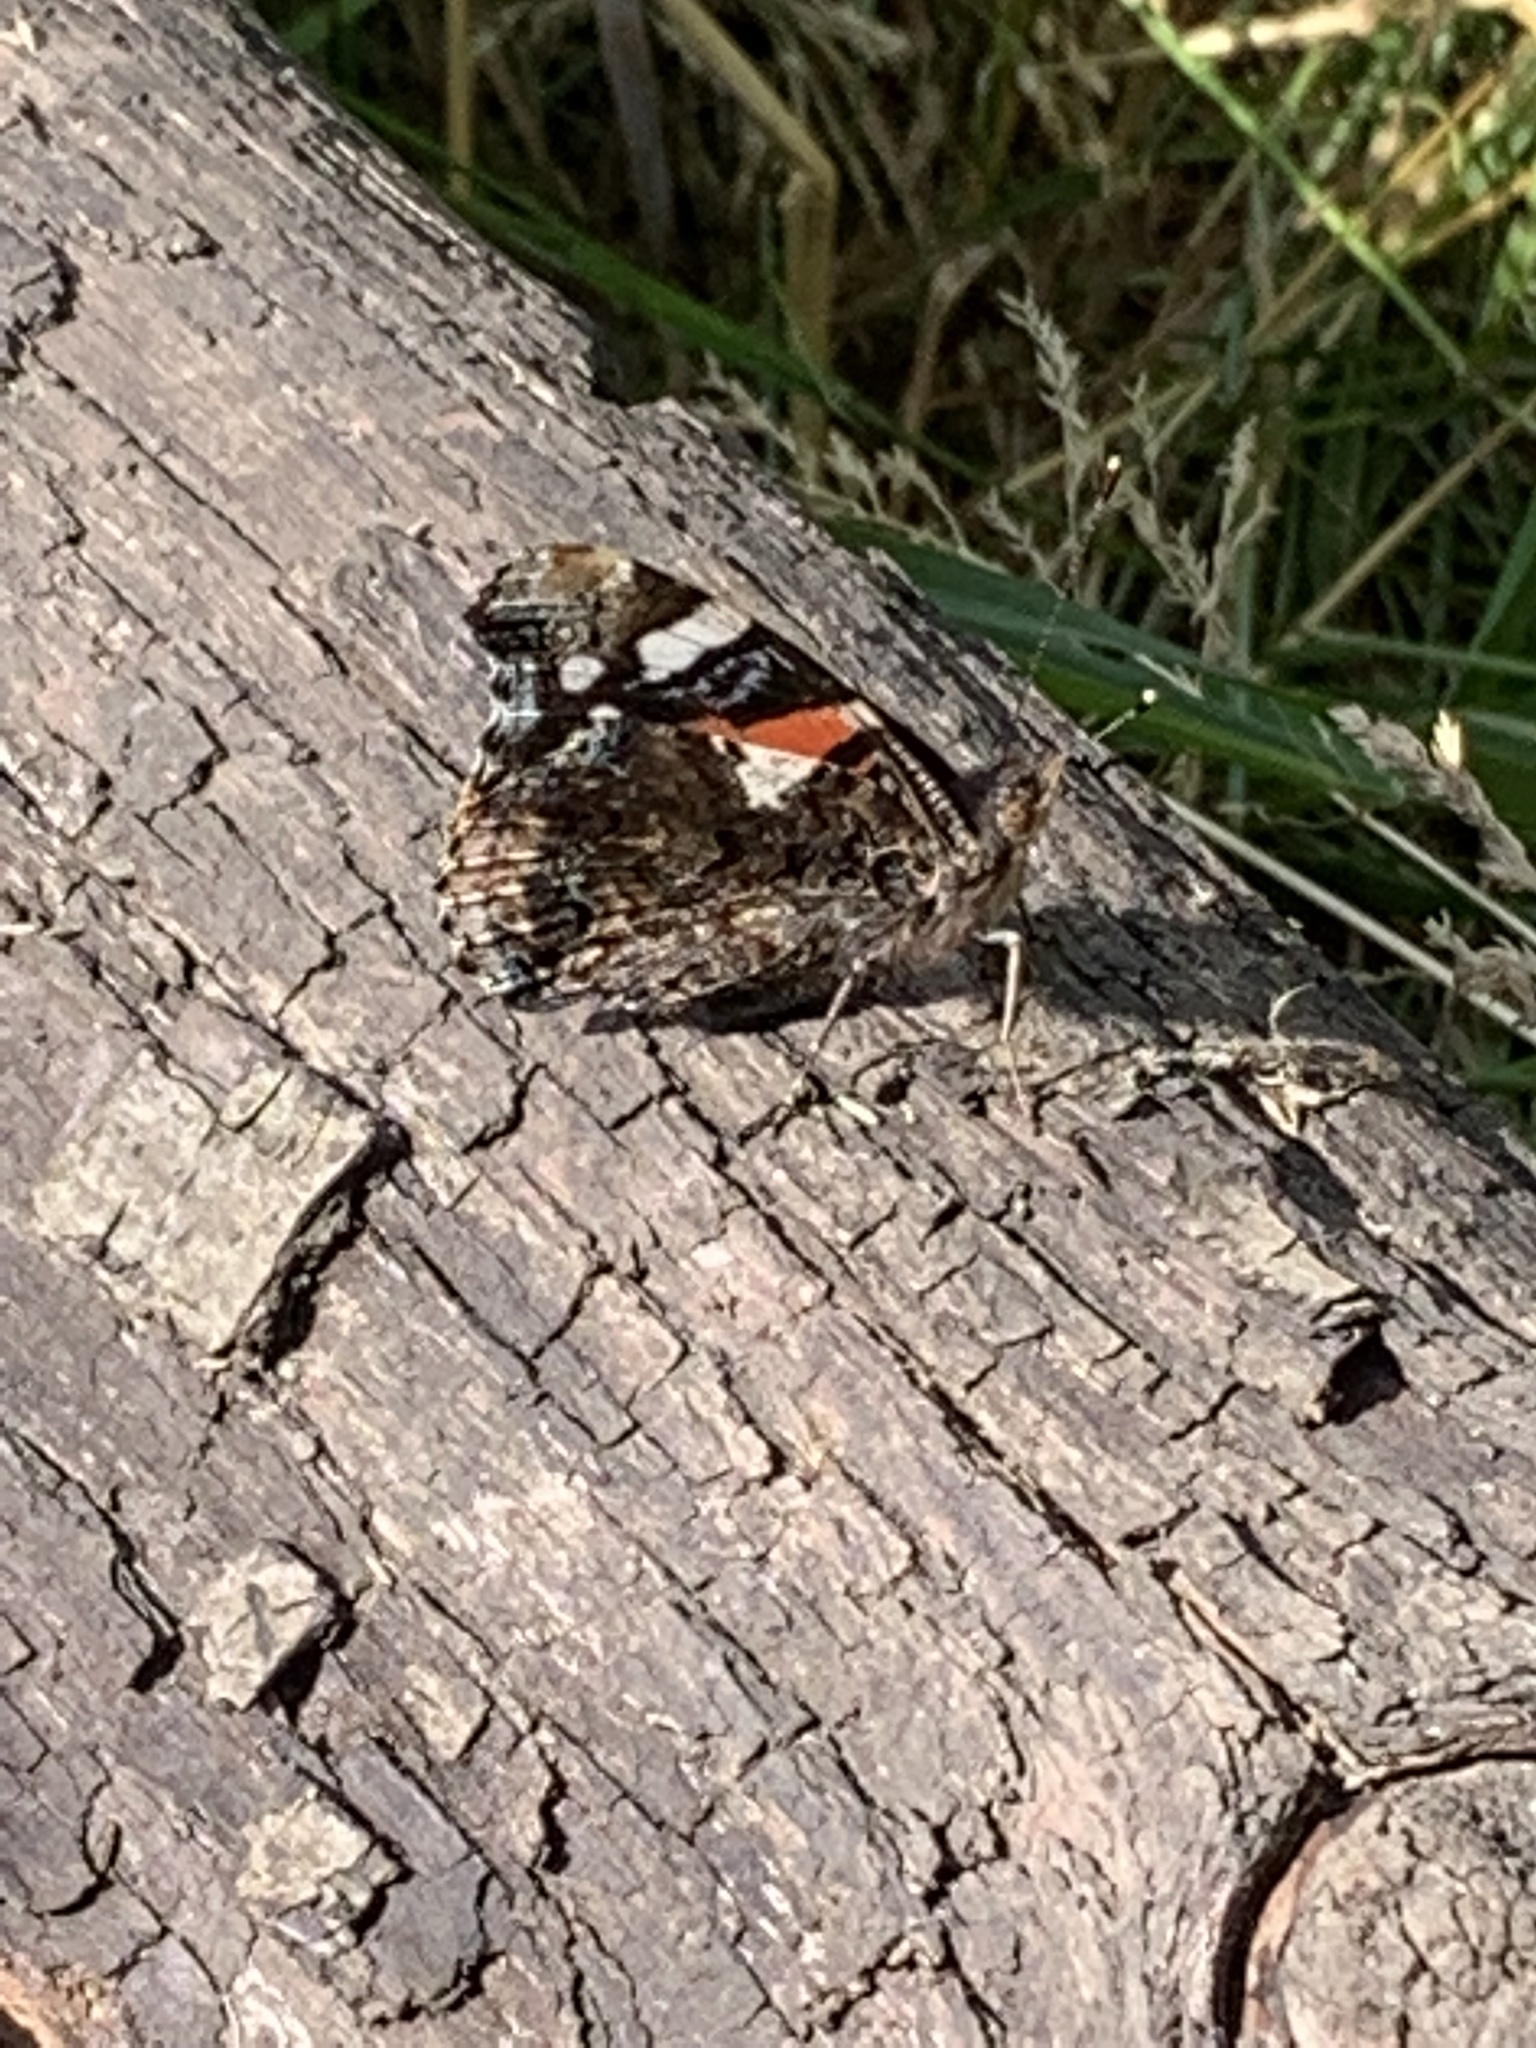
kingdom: Animalia
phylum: Arthropoda
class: Insecta
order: Lepidoptera
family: Nymphalidae
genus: Vanessa
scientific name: Vanessa atalanta
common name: Red admiral
